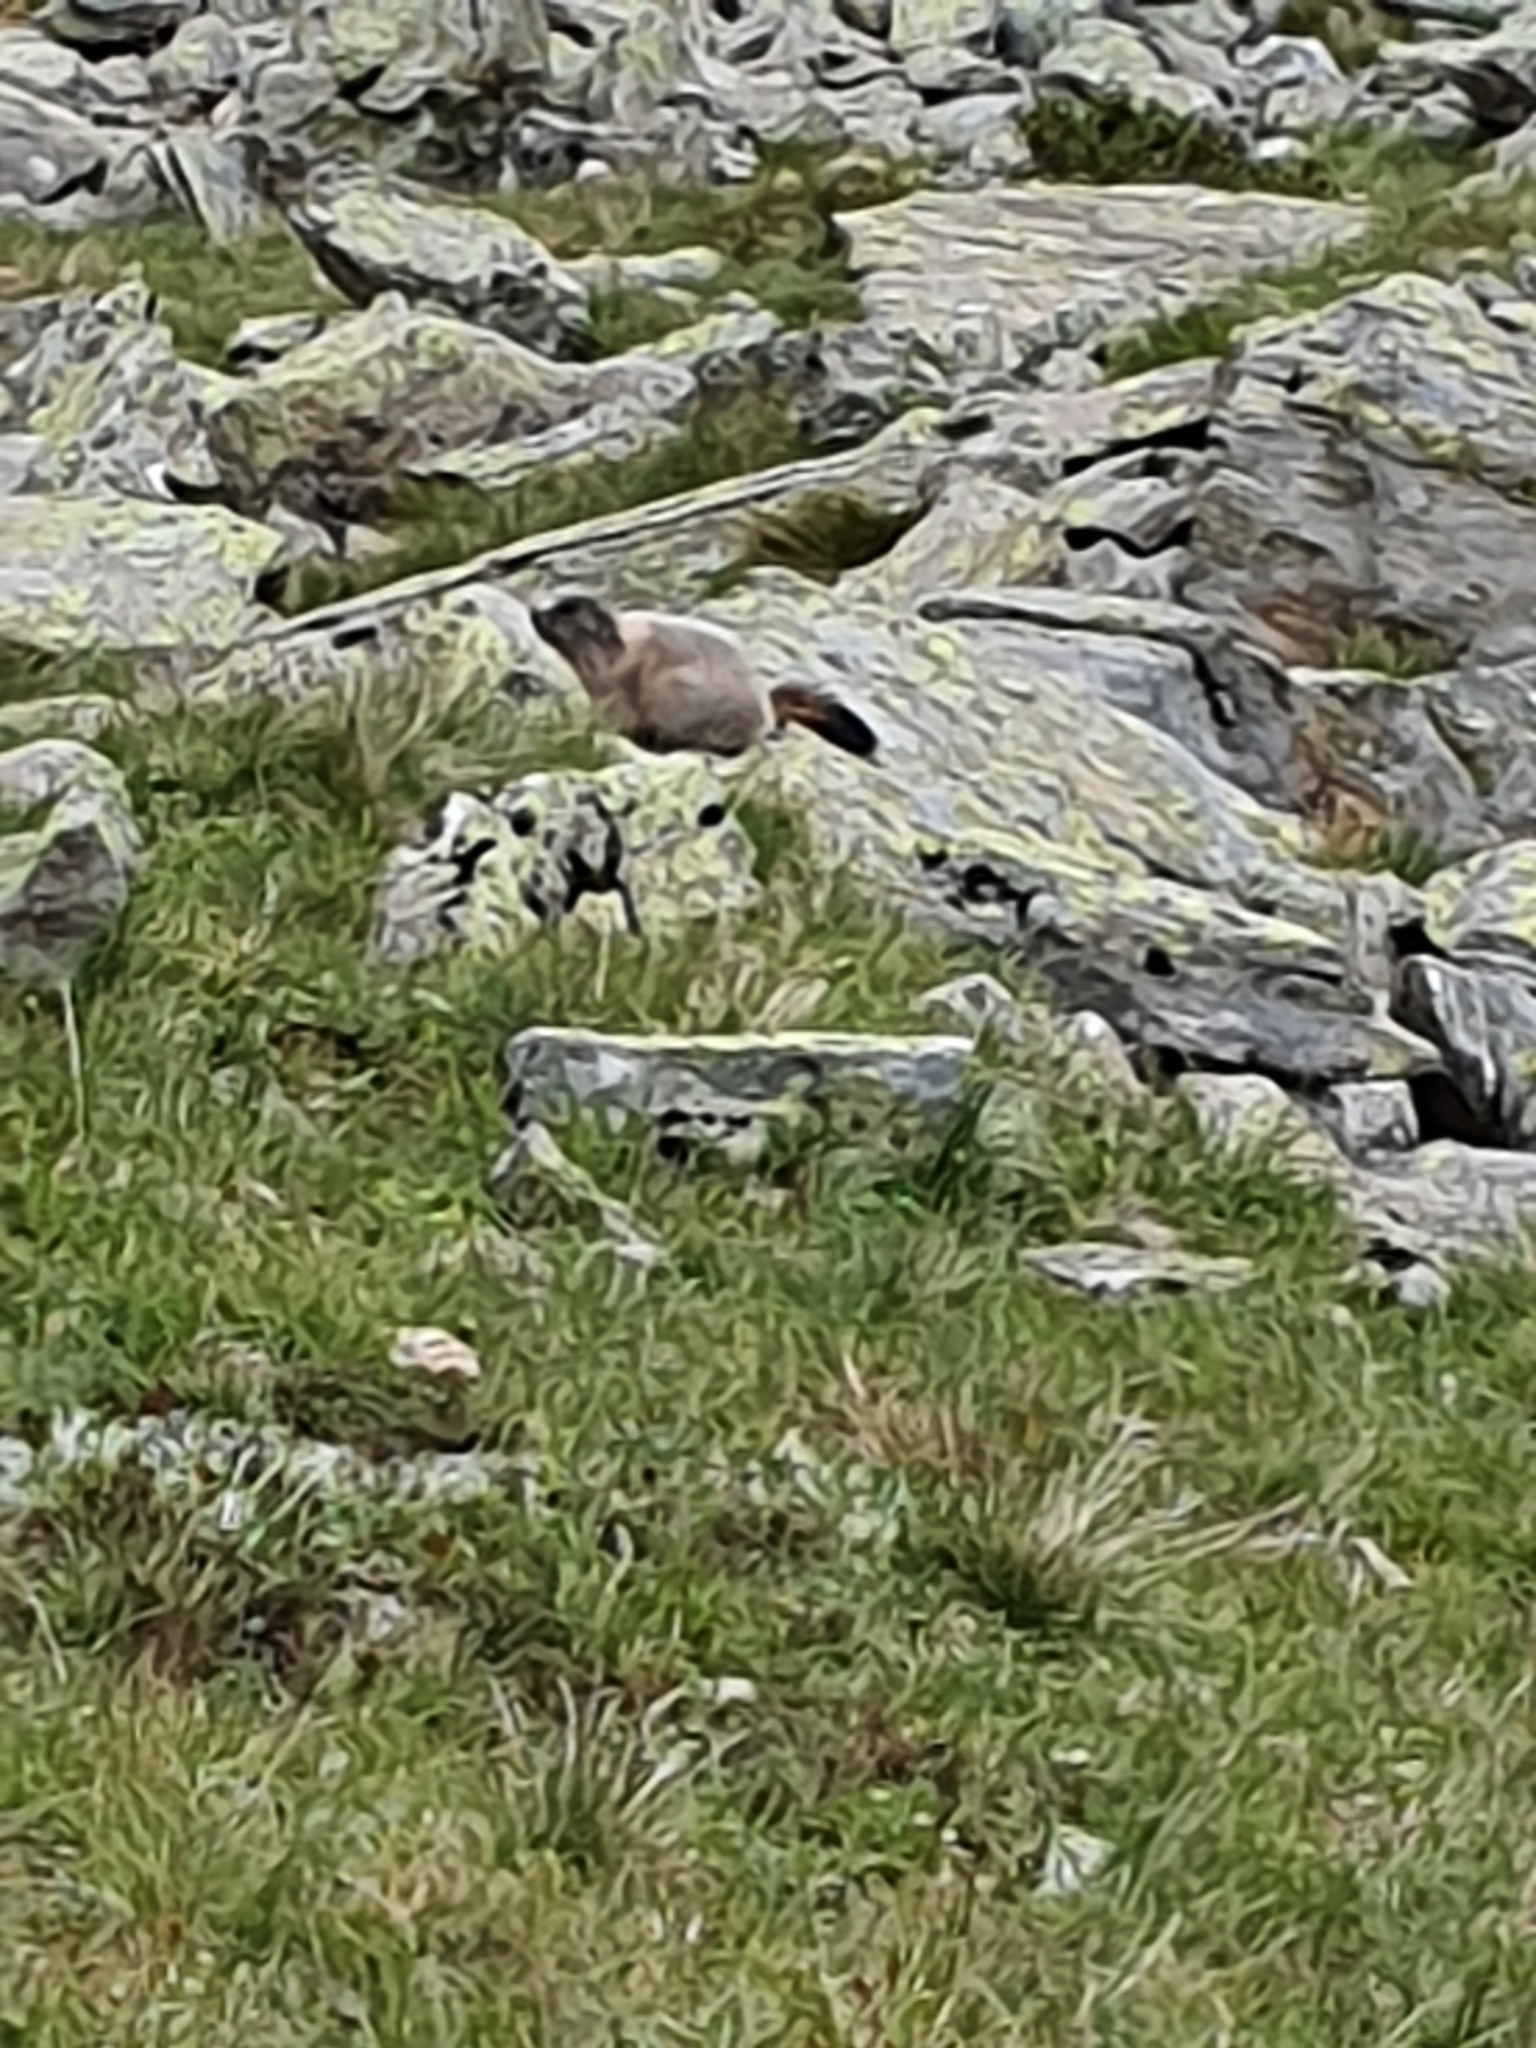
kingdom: Animalia
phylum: Chordata
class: Mammalia
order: Rodentia
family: Sciuridae
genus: Marmota
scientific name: Marmota marmota
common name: Alpine marmot
